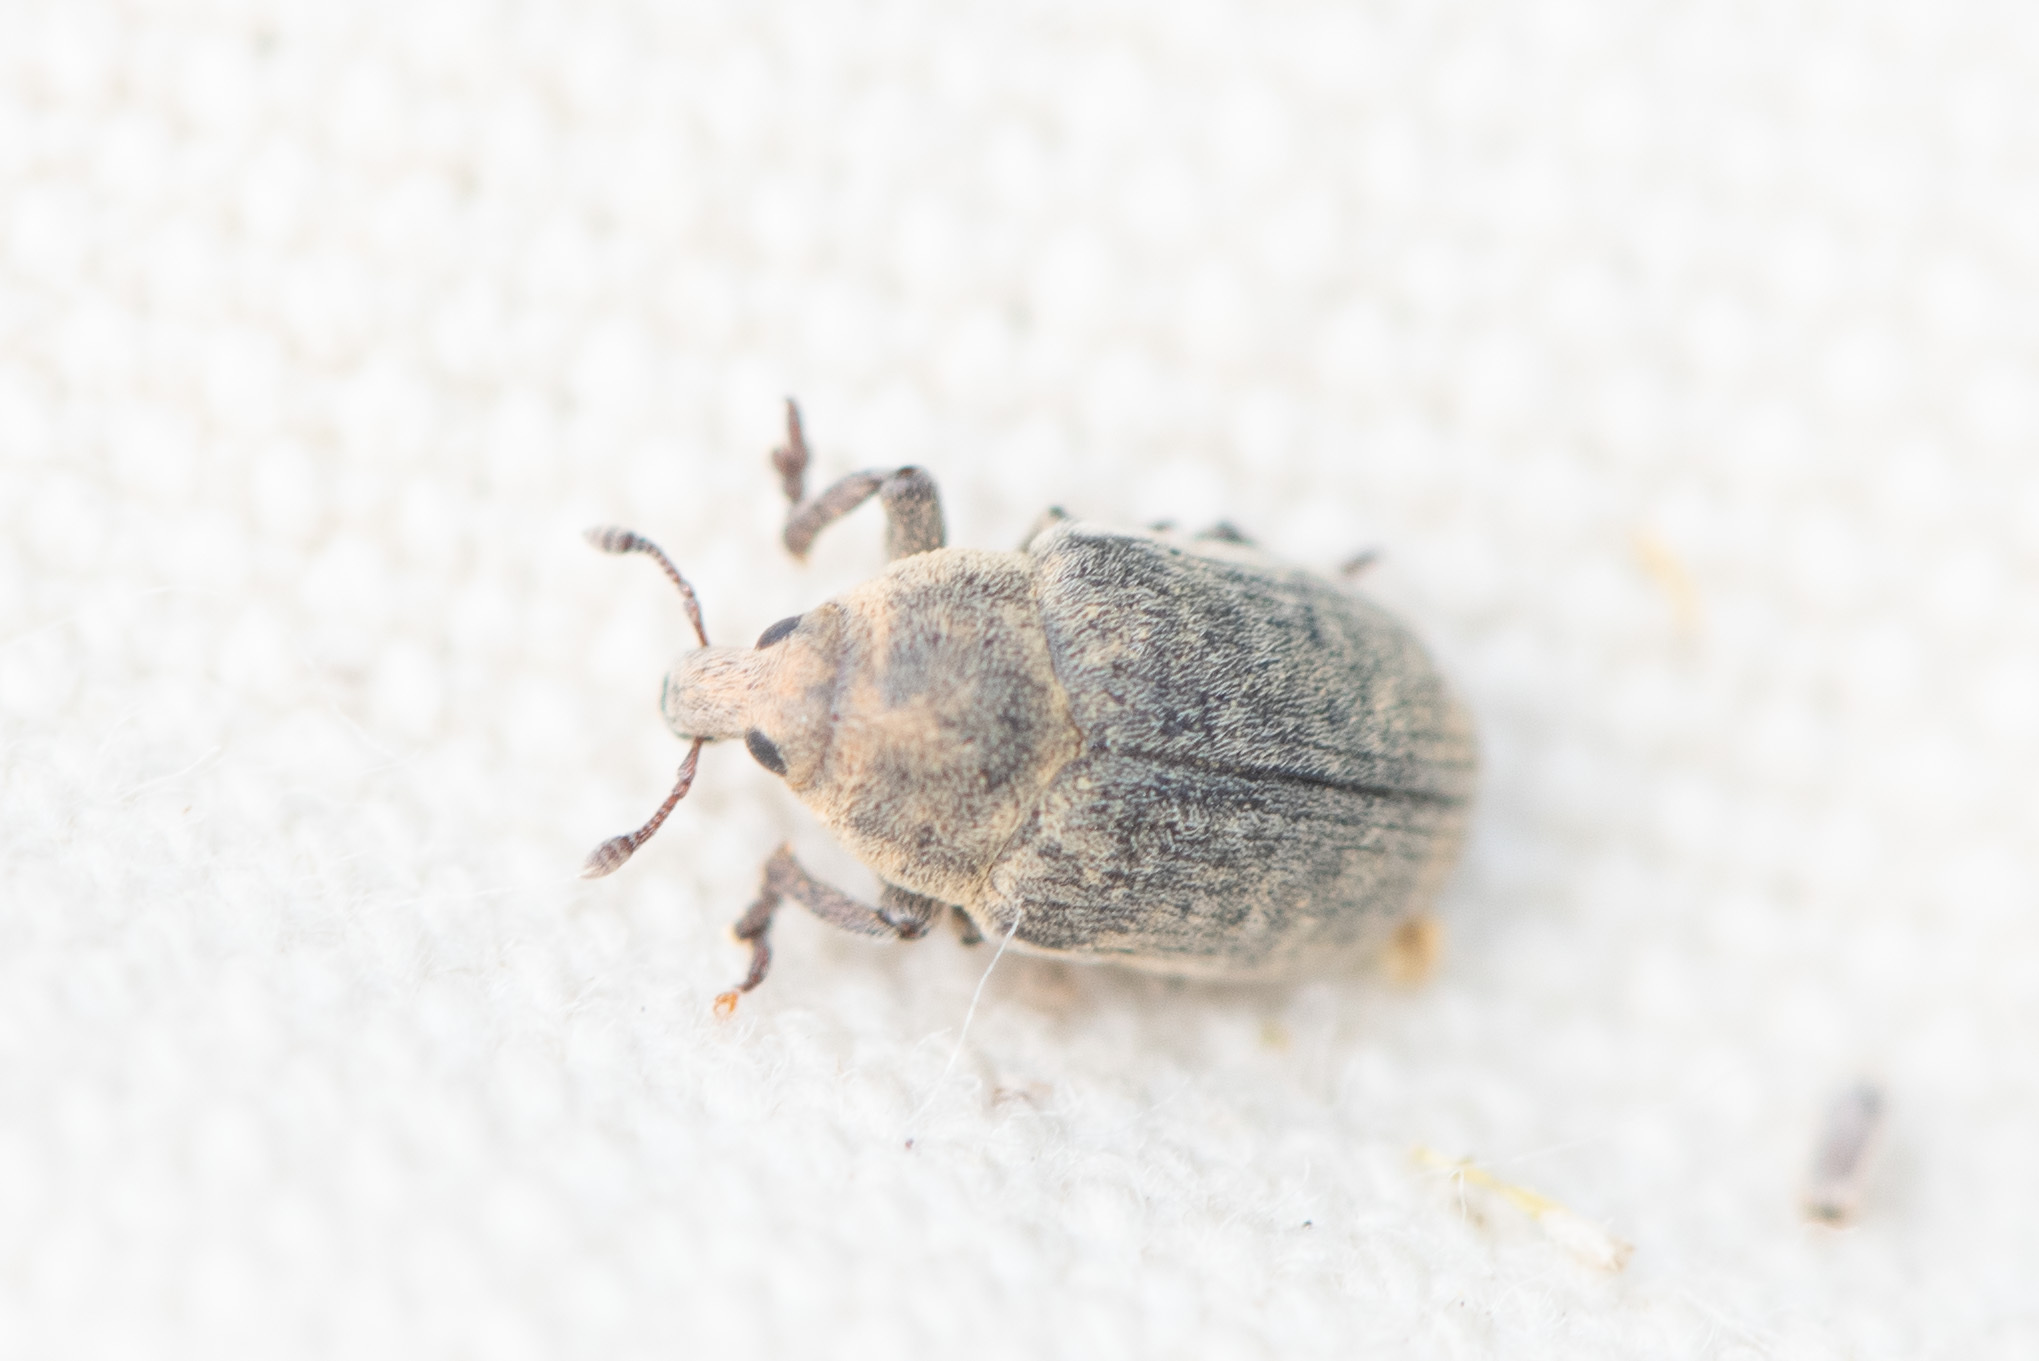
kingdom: Animalia
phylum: Arthropoda
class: Insecta
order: Coleoptera
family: Curculionidae
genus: Larinus
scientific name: Larinus minutus
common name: Weevil
